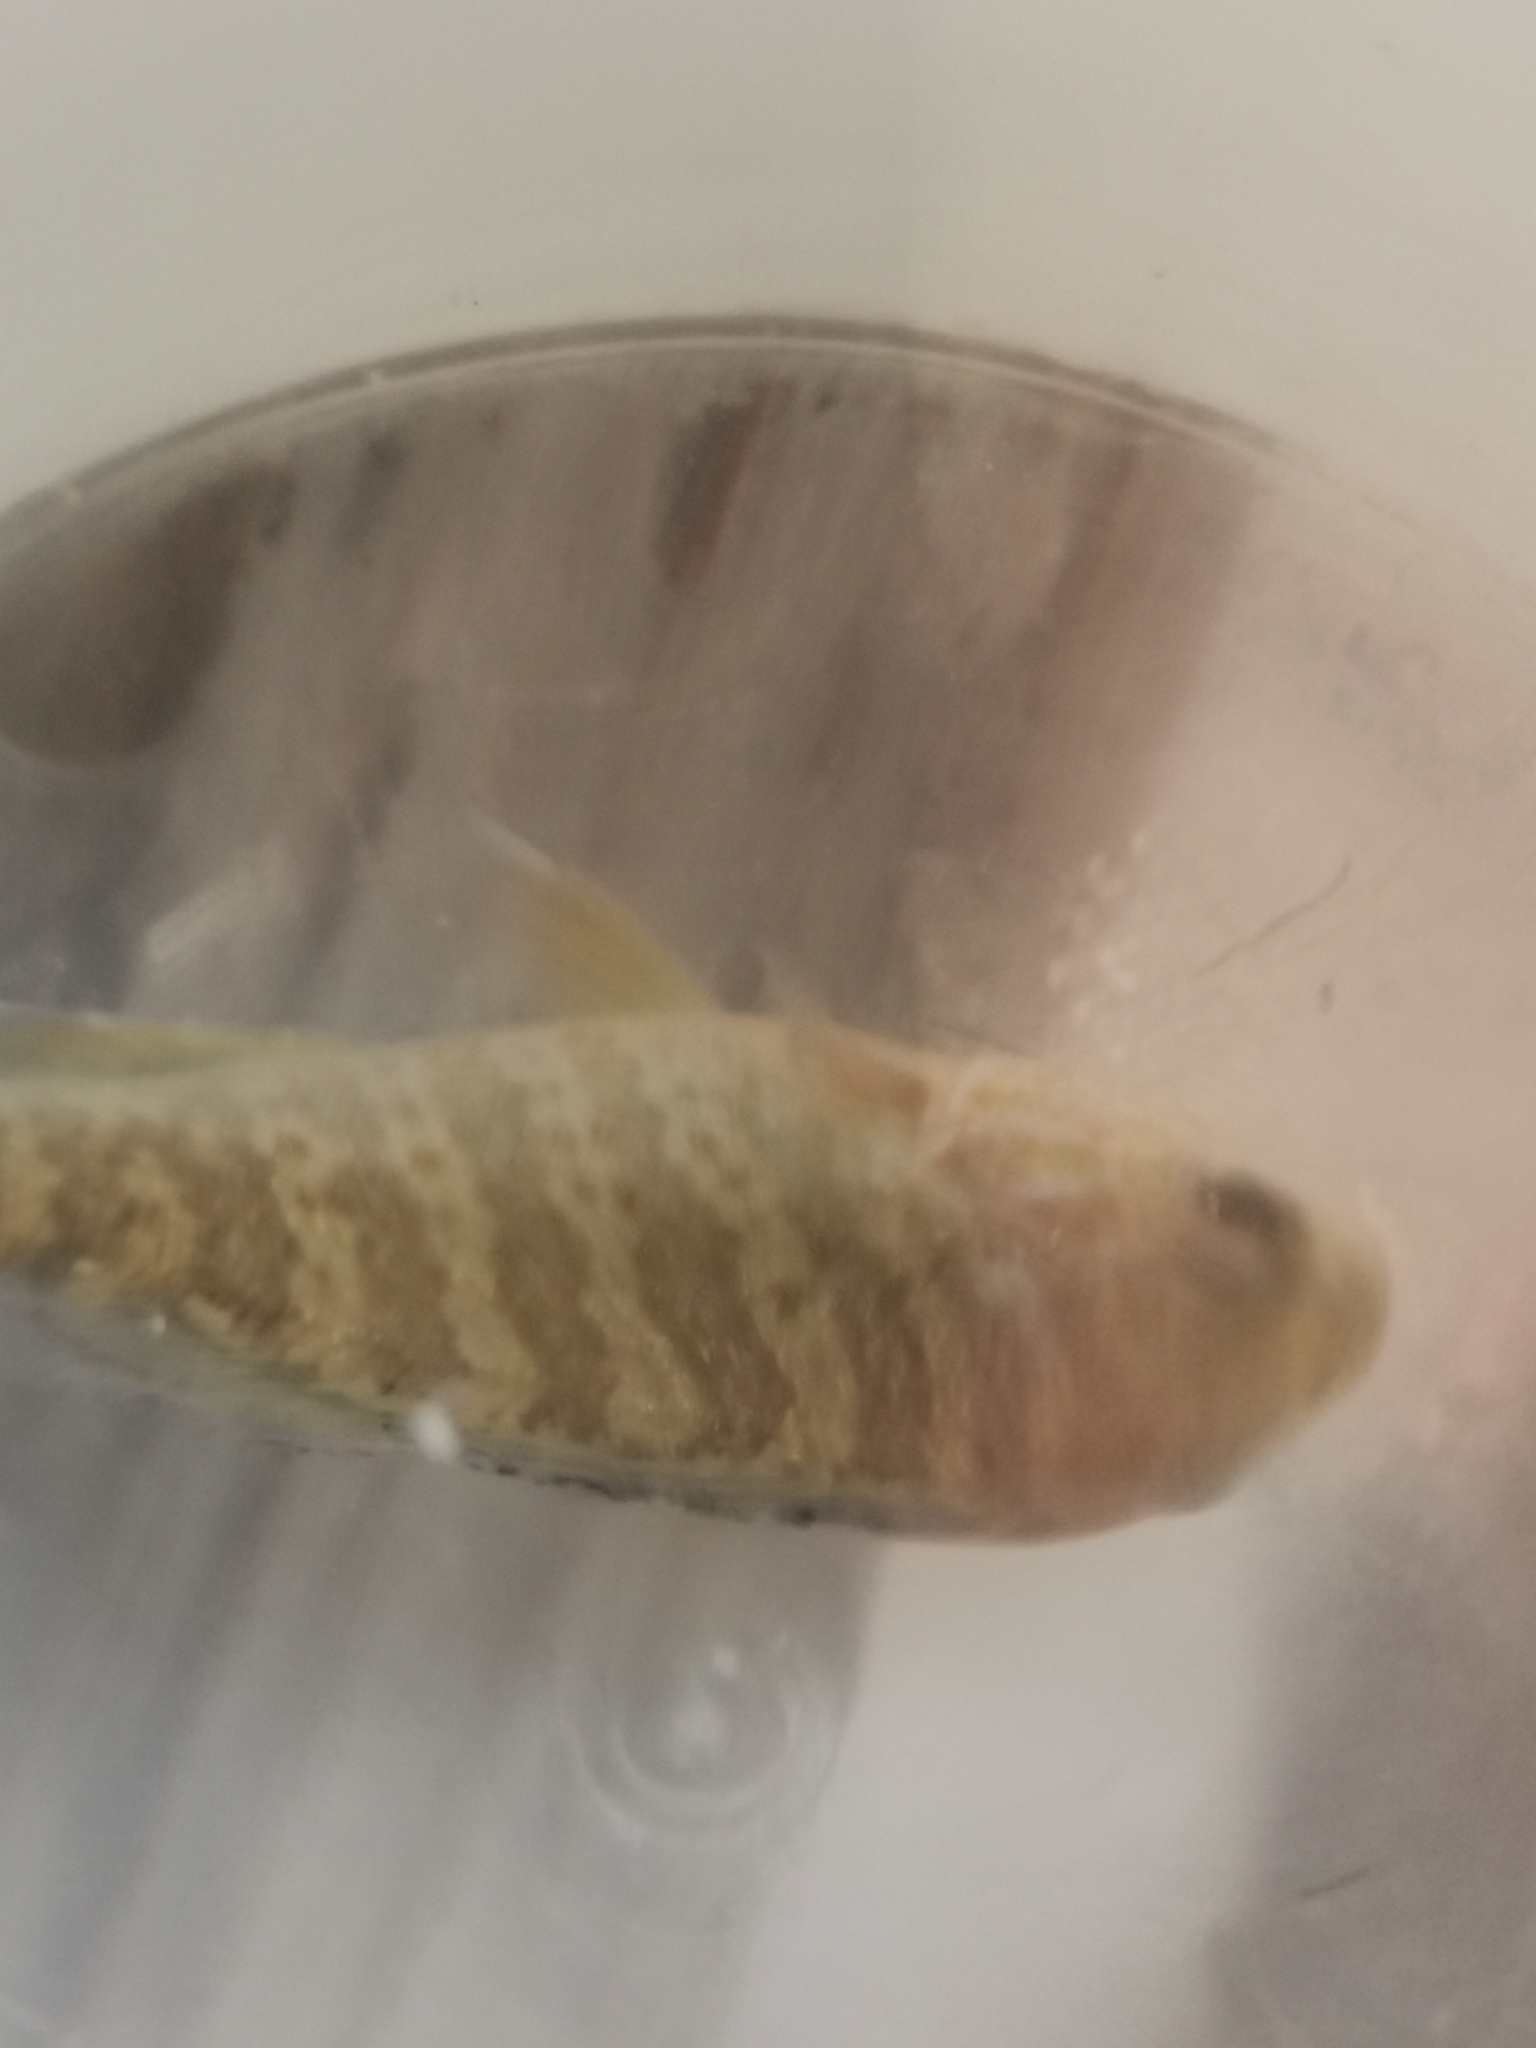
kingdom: Animalia
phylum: Chordata
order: Perciformes
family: Centrarchidae
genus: Lepomis
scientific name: Lepomis gibbosus
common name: Pumpkinseed
